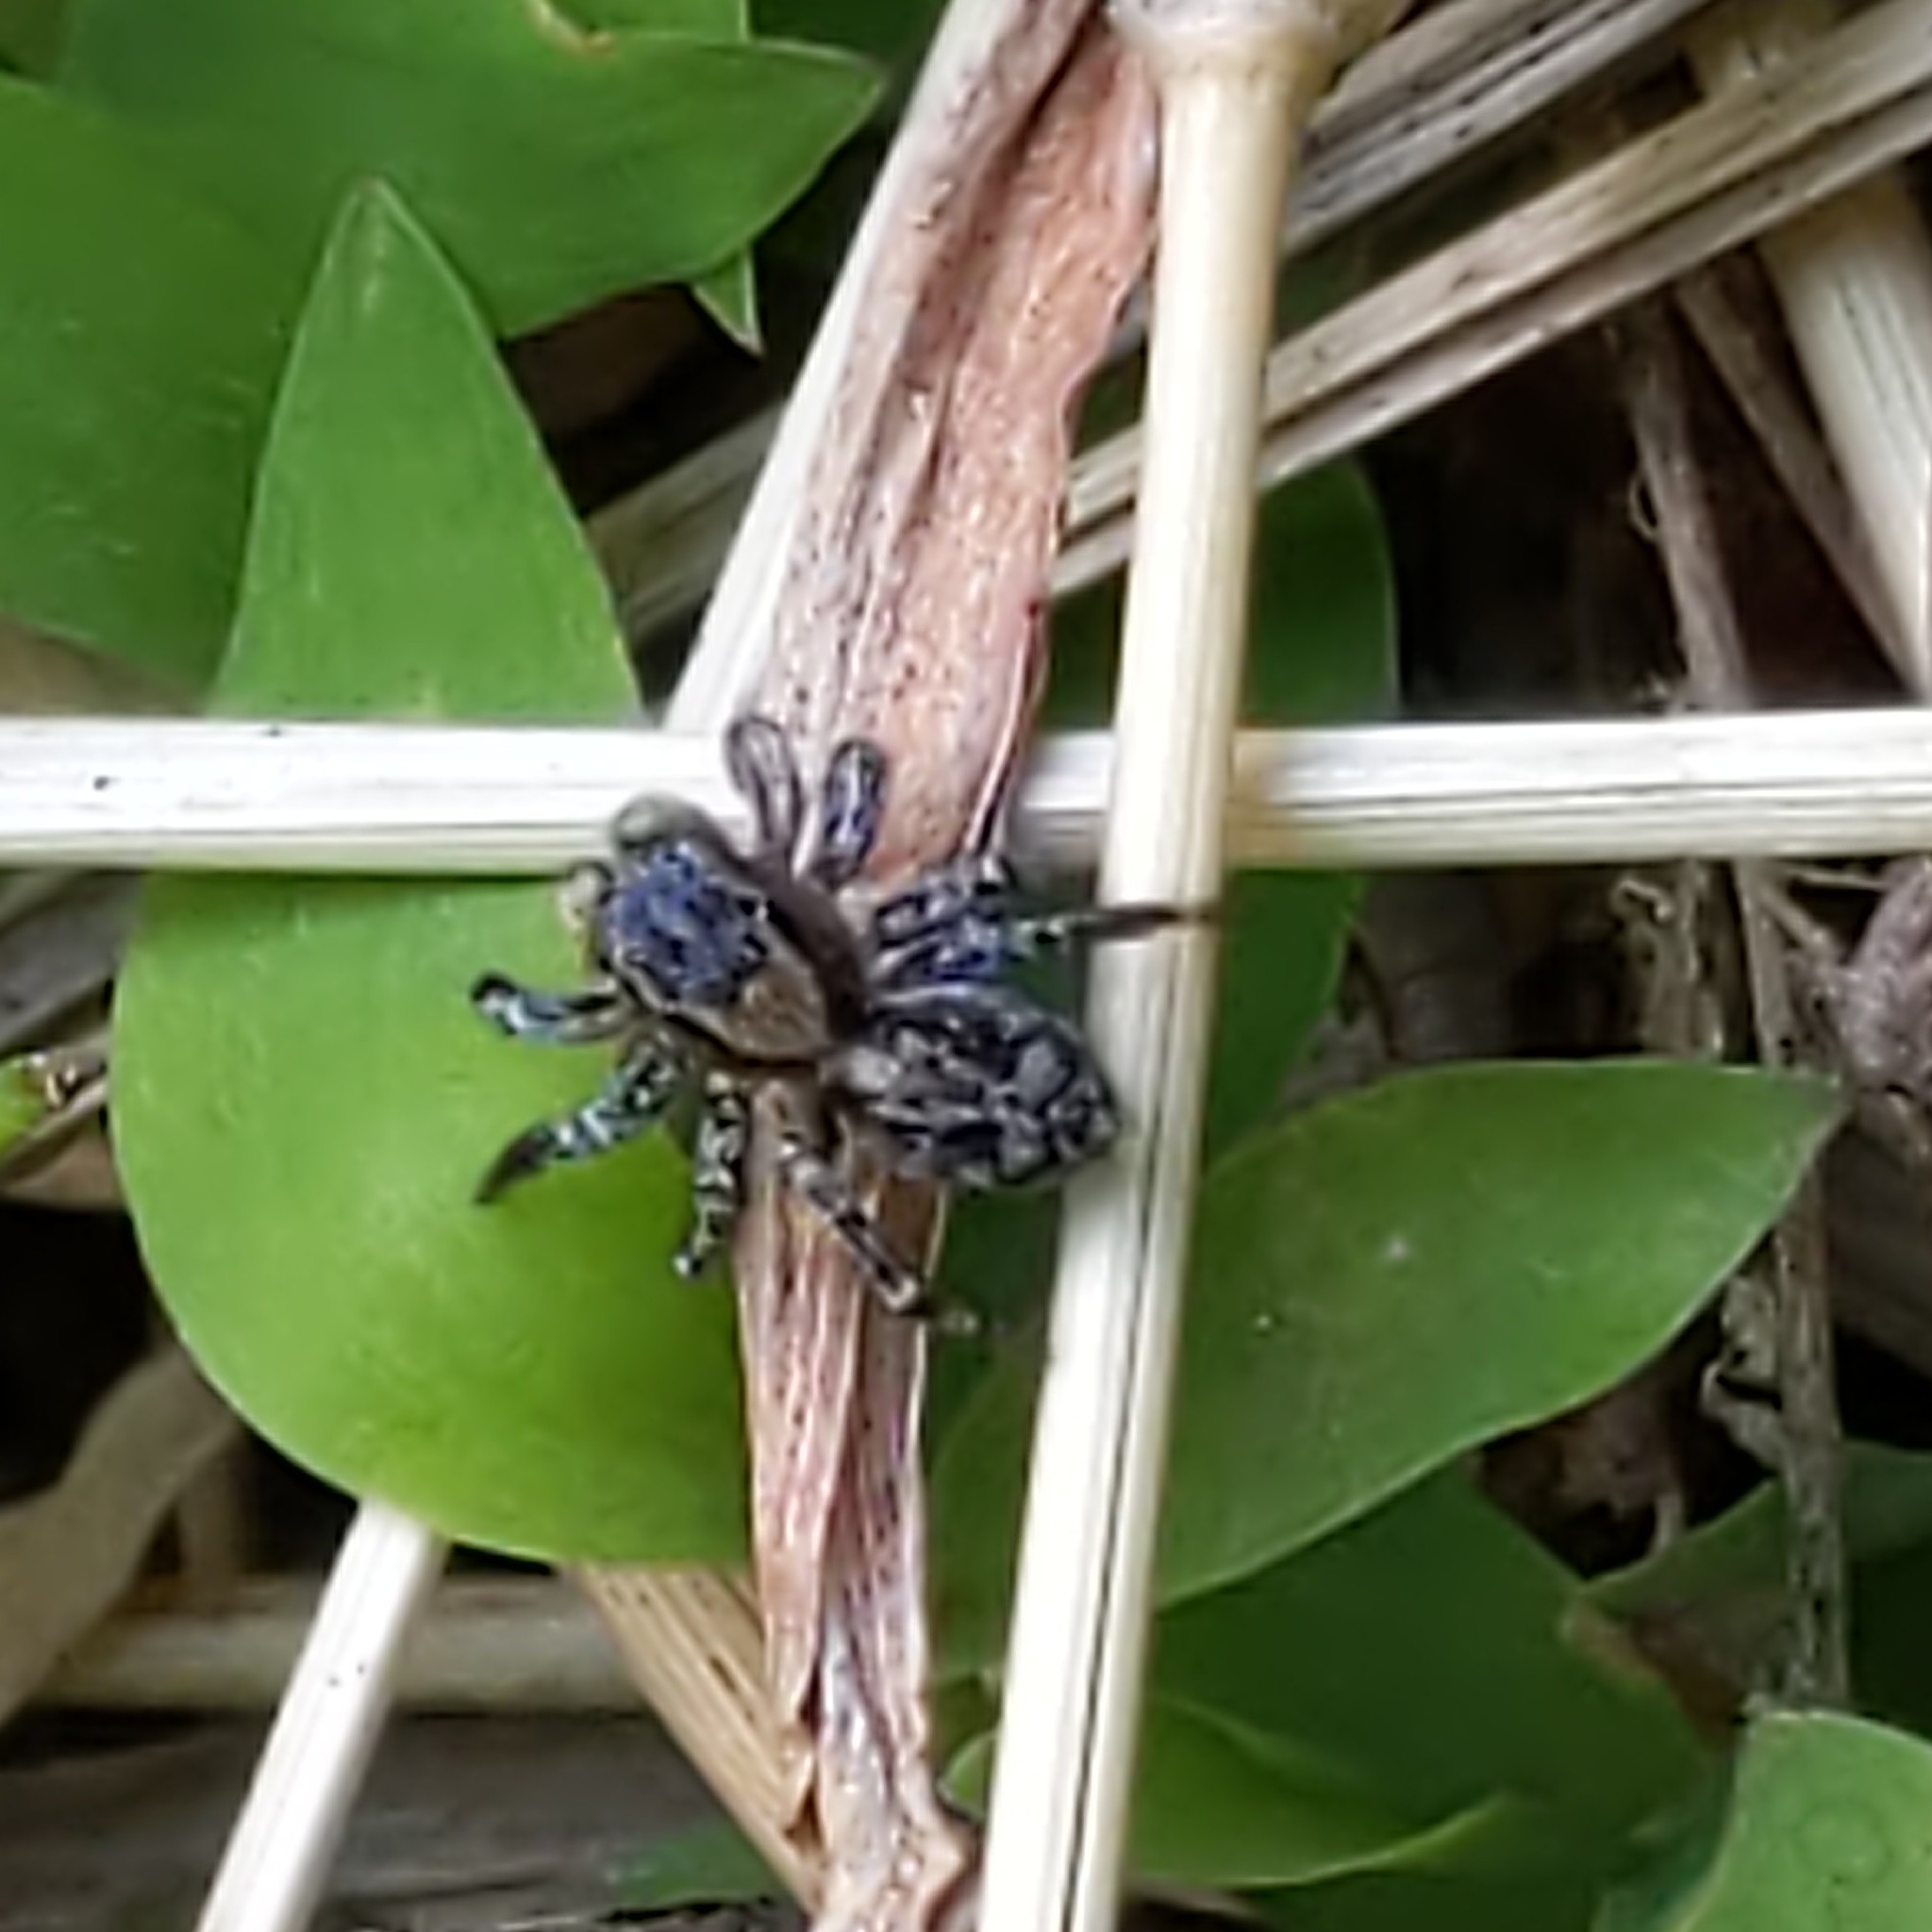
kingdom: Animalia
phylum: Arthropoda
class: Arachnida
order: Araneae
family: Salticidae
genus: Naphrys
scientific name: Naphrys pulex
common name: Flea jumping spider
